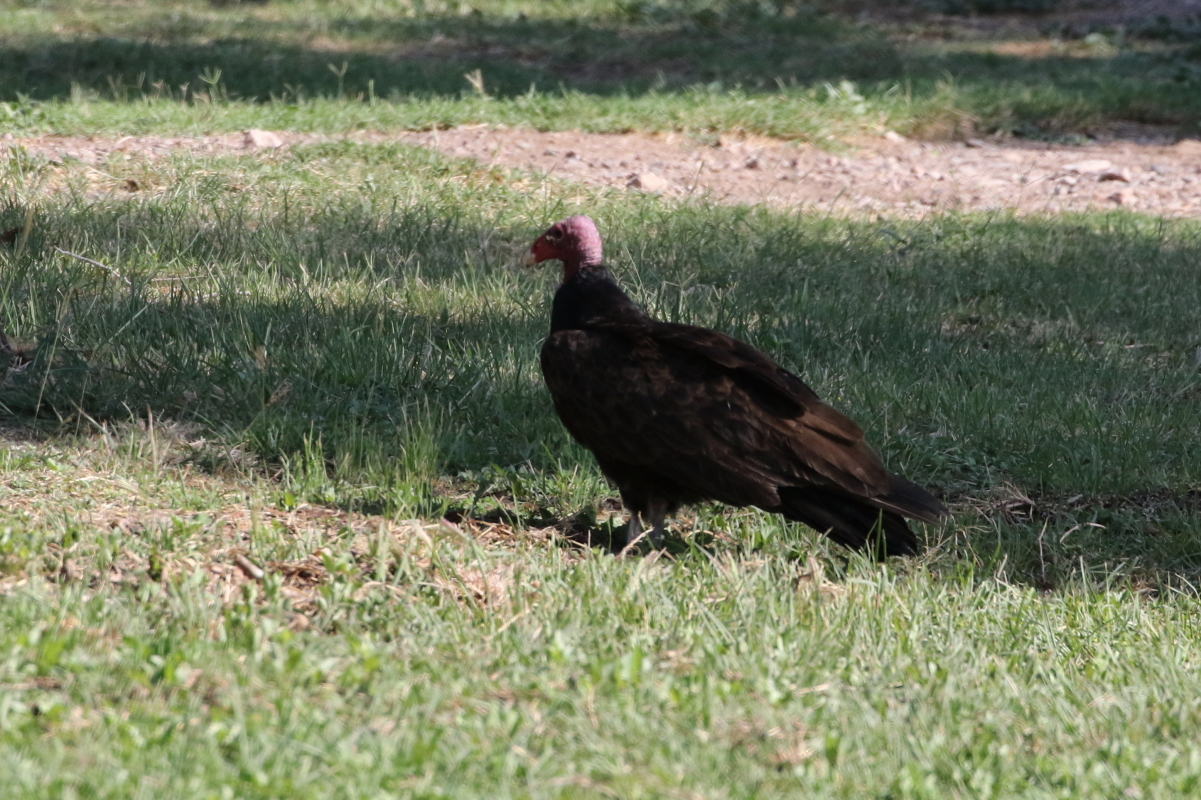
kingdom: Animalia
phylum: Chordata
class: Aves
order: Accipitriformes
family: Cathartidae
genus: Cathartes
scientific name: Cathartes aura
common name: Turkey vulture
